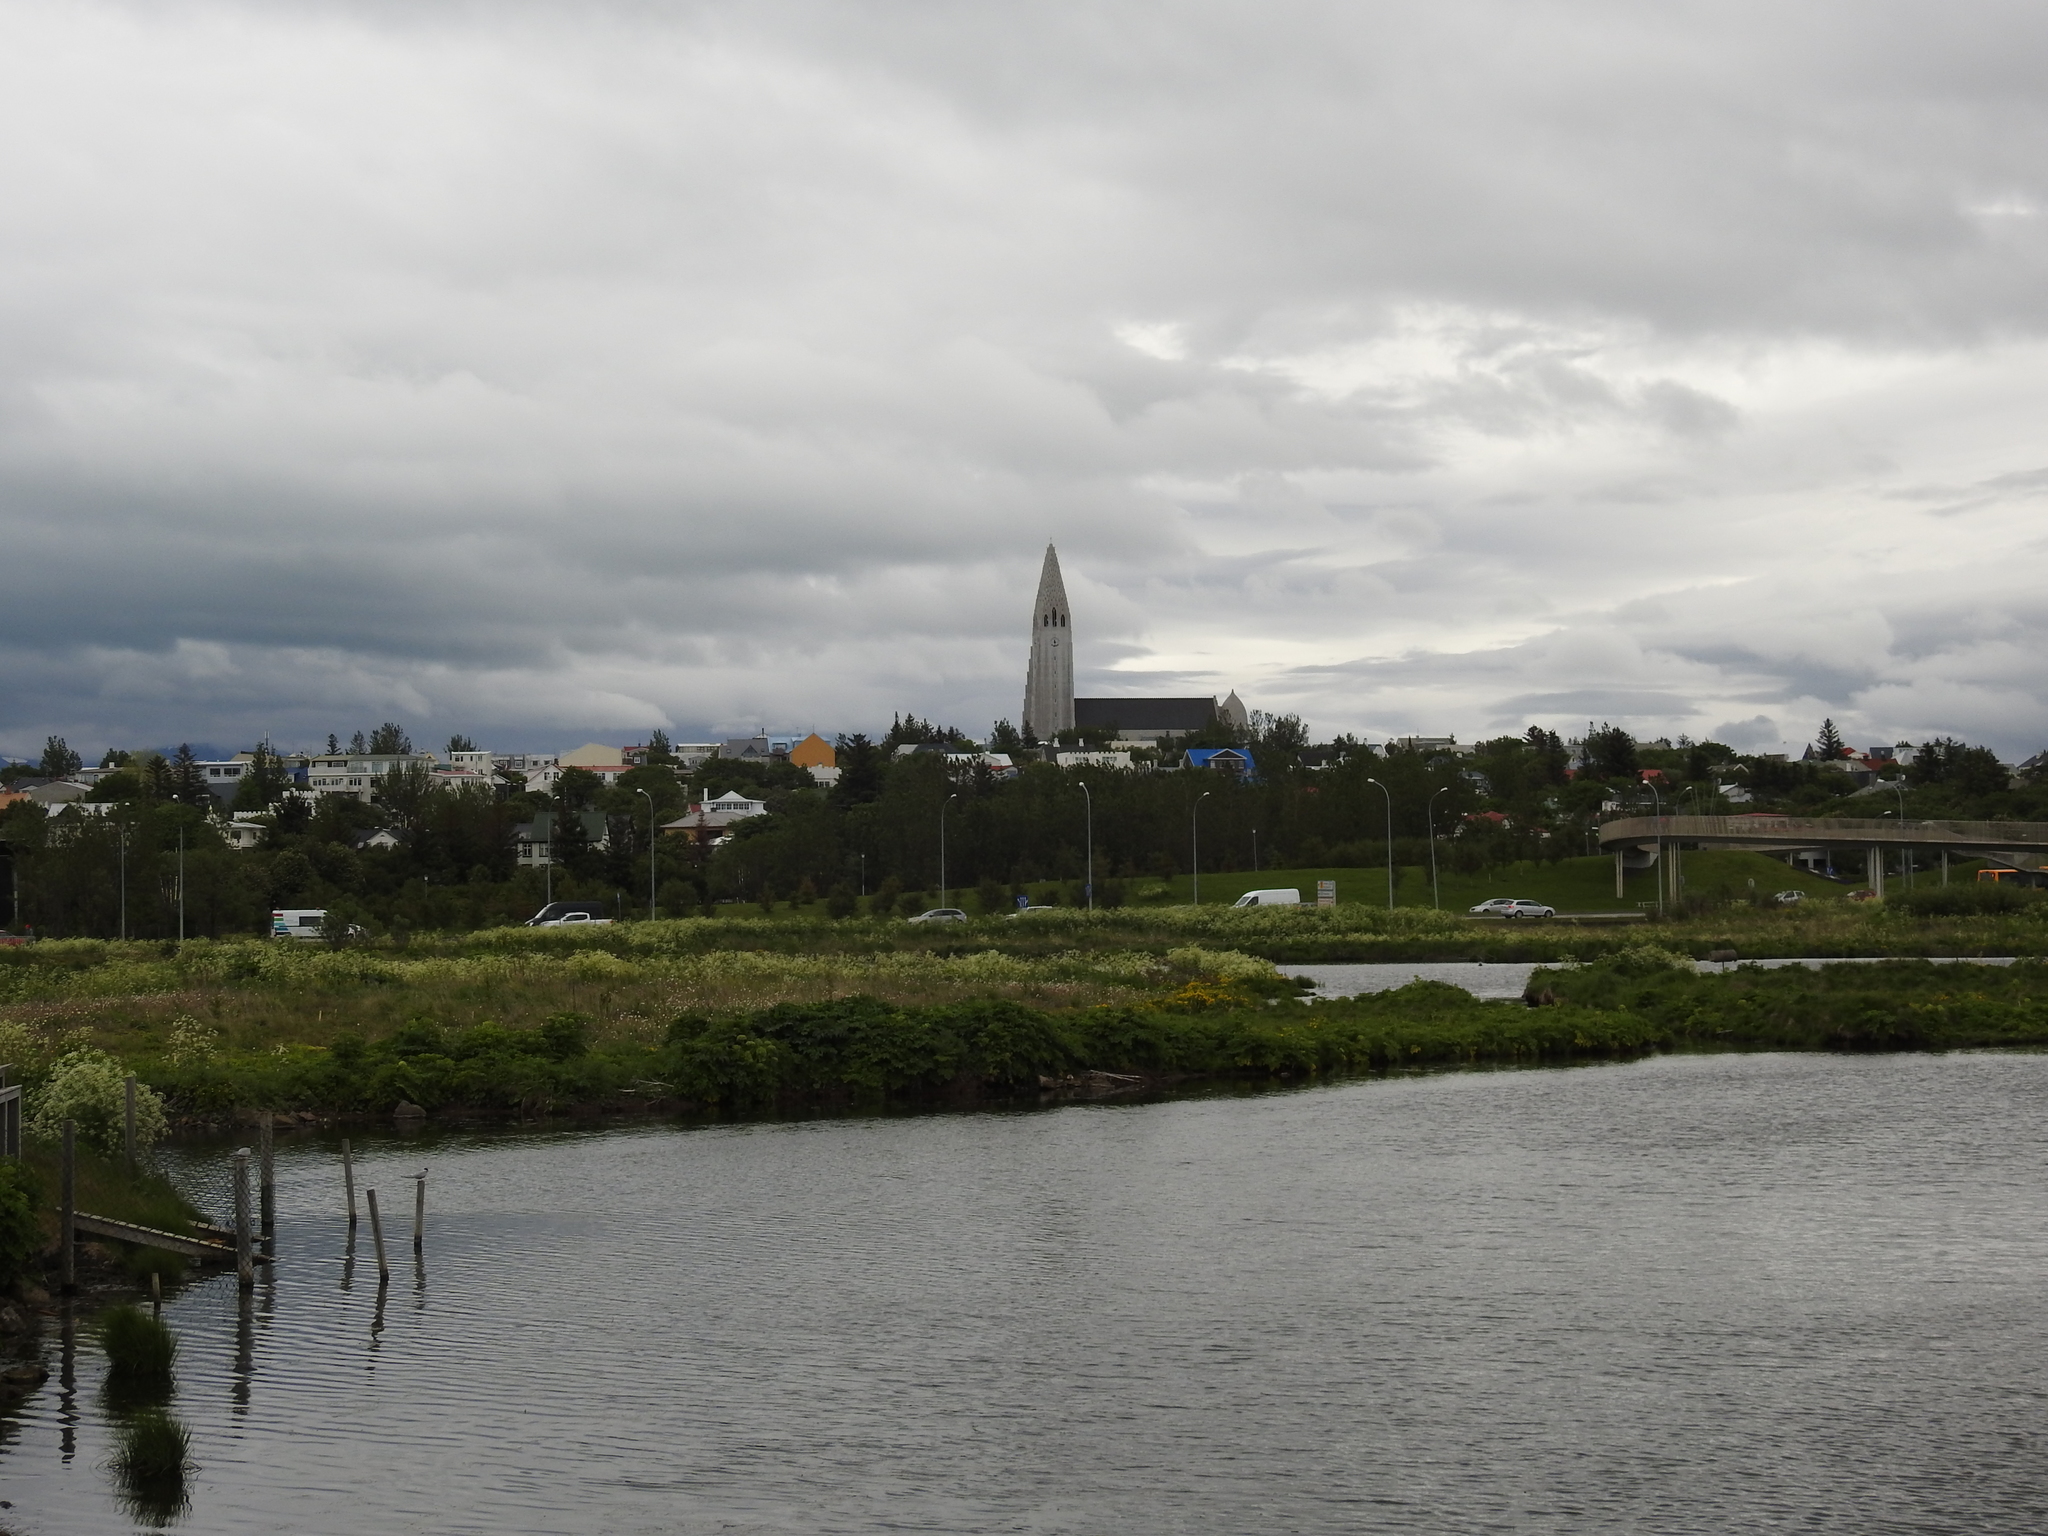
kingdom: Animalia
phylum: Chordata
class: Aves
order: Charadriiformes
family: Laridae
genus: Sterna
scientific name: Sterna paradisaea
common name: Arctic tern
